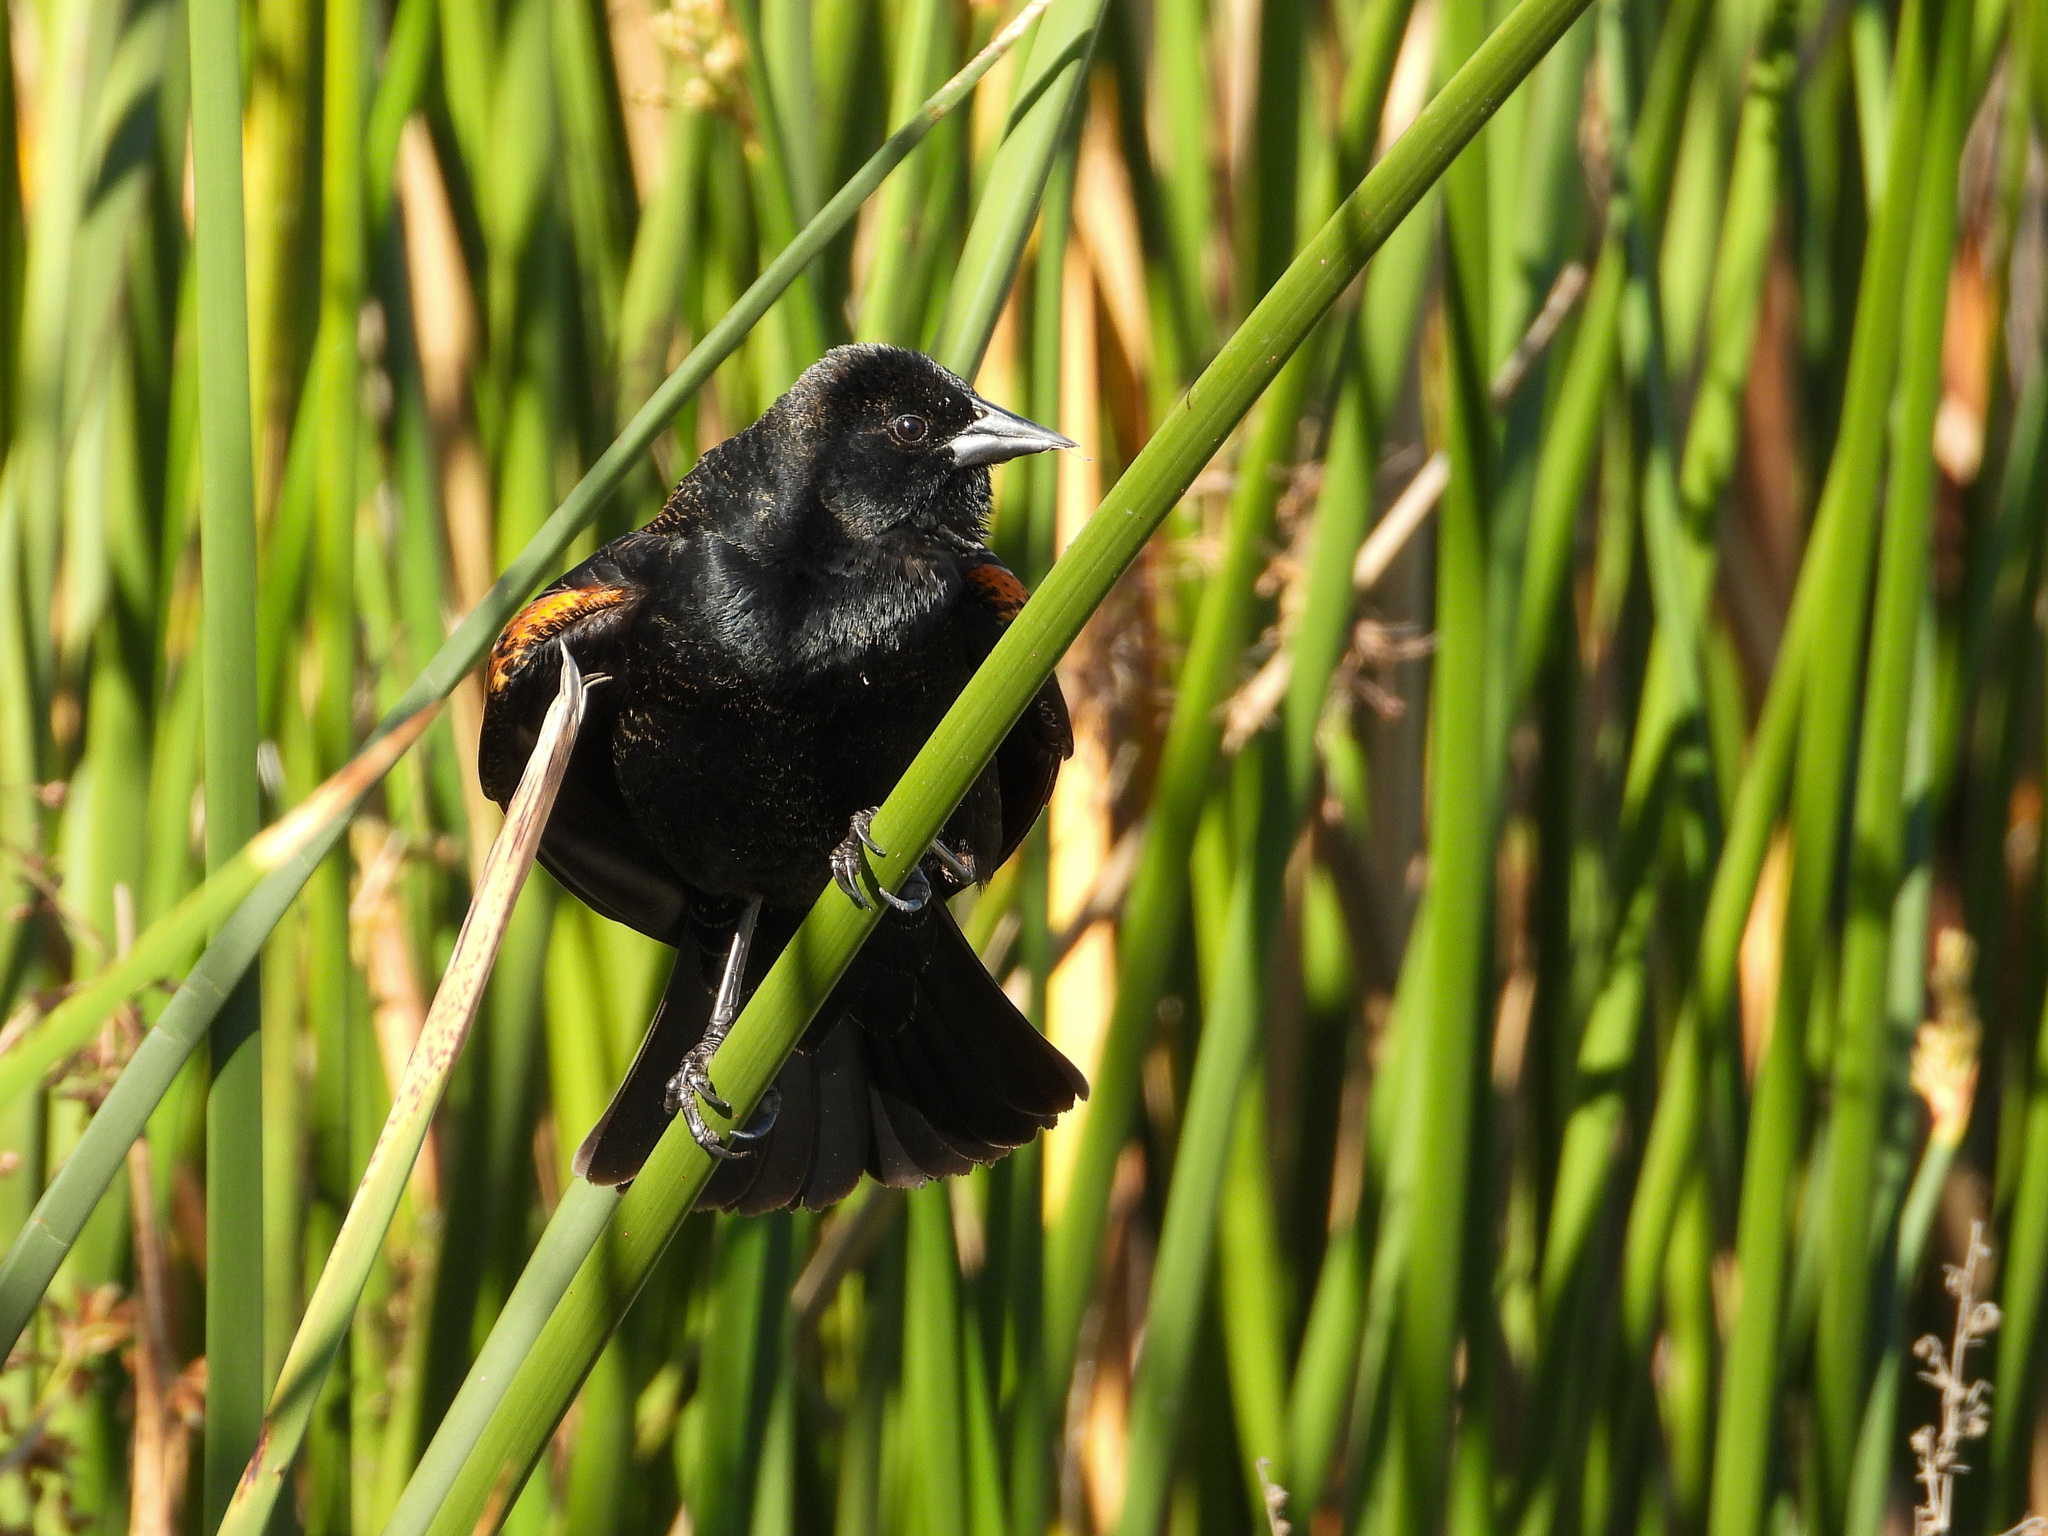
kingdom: Animalia
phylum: Chordata
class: Aves
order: Passeriformes
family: Icteridae
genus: Agelaius
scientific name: Agelaius phoeniceus
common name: Red-winged blackbird
